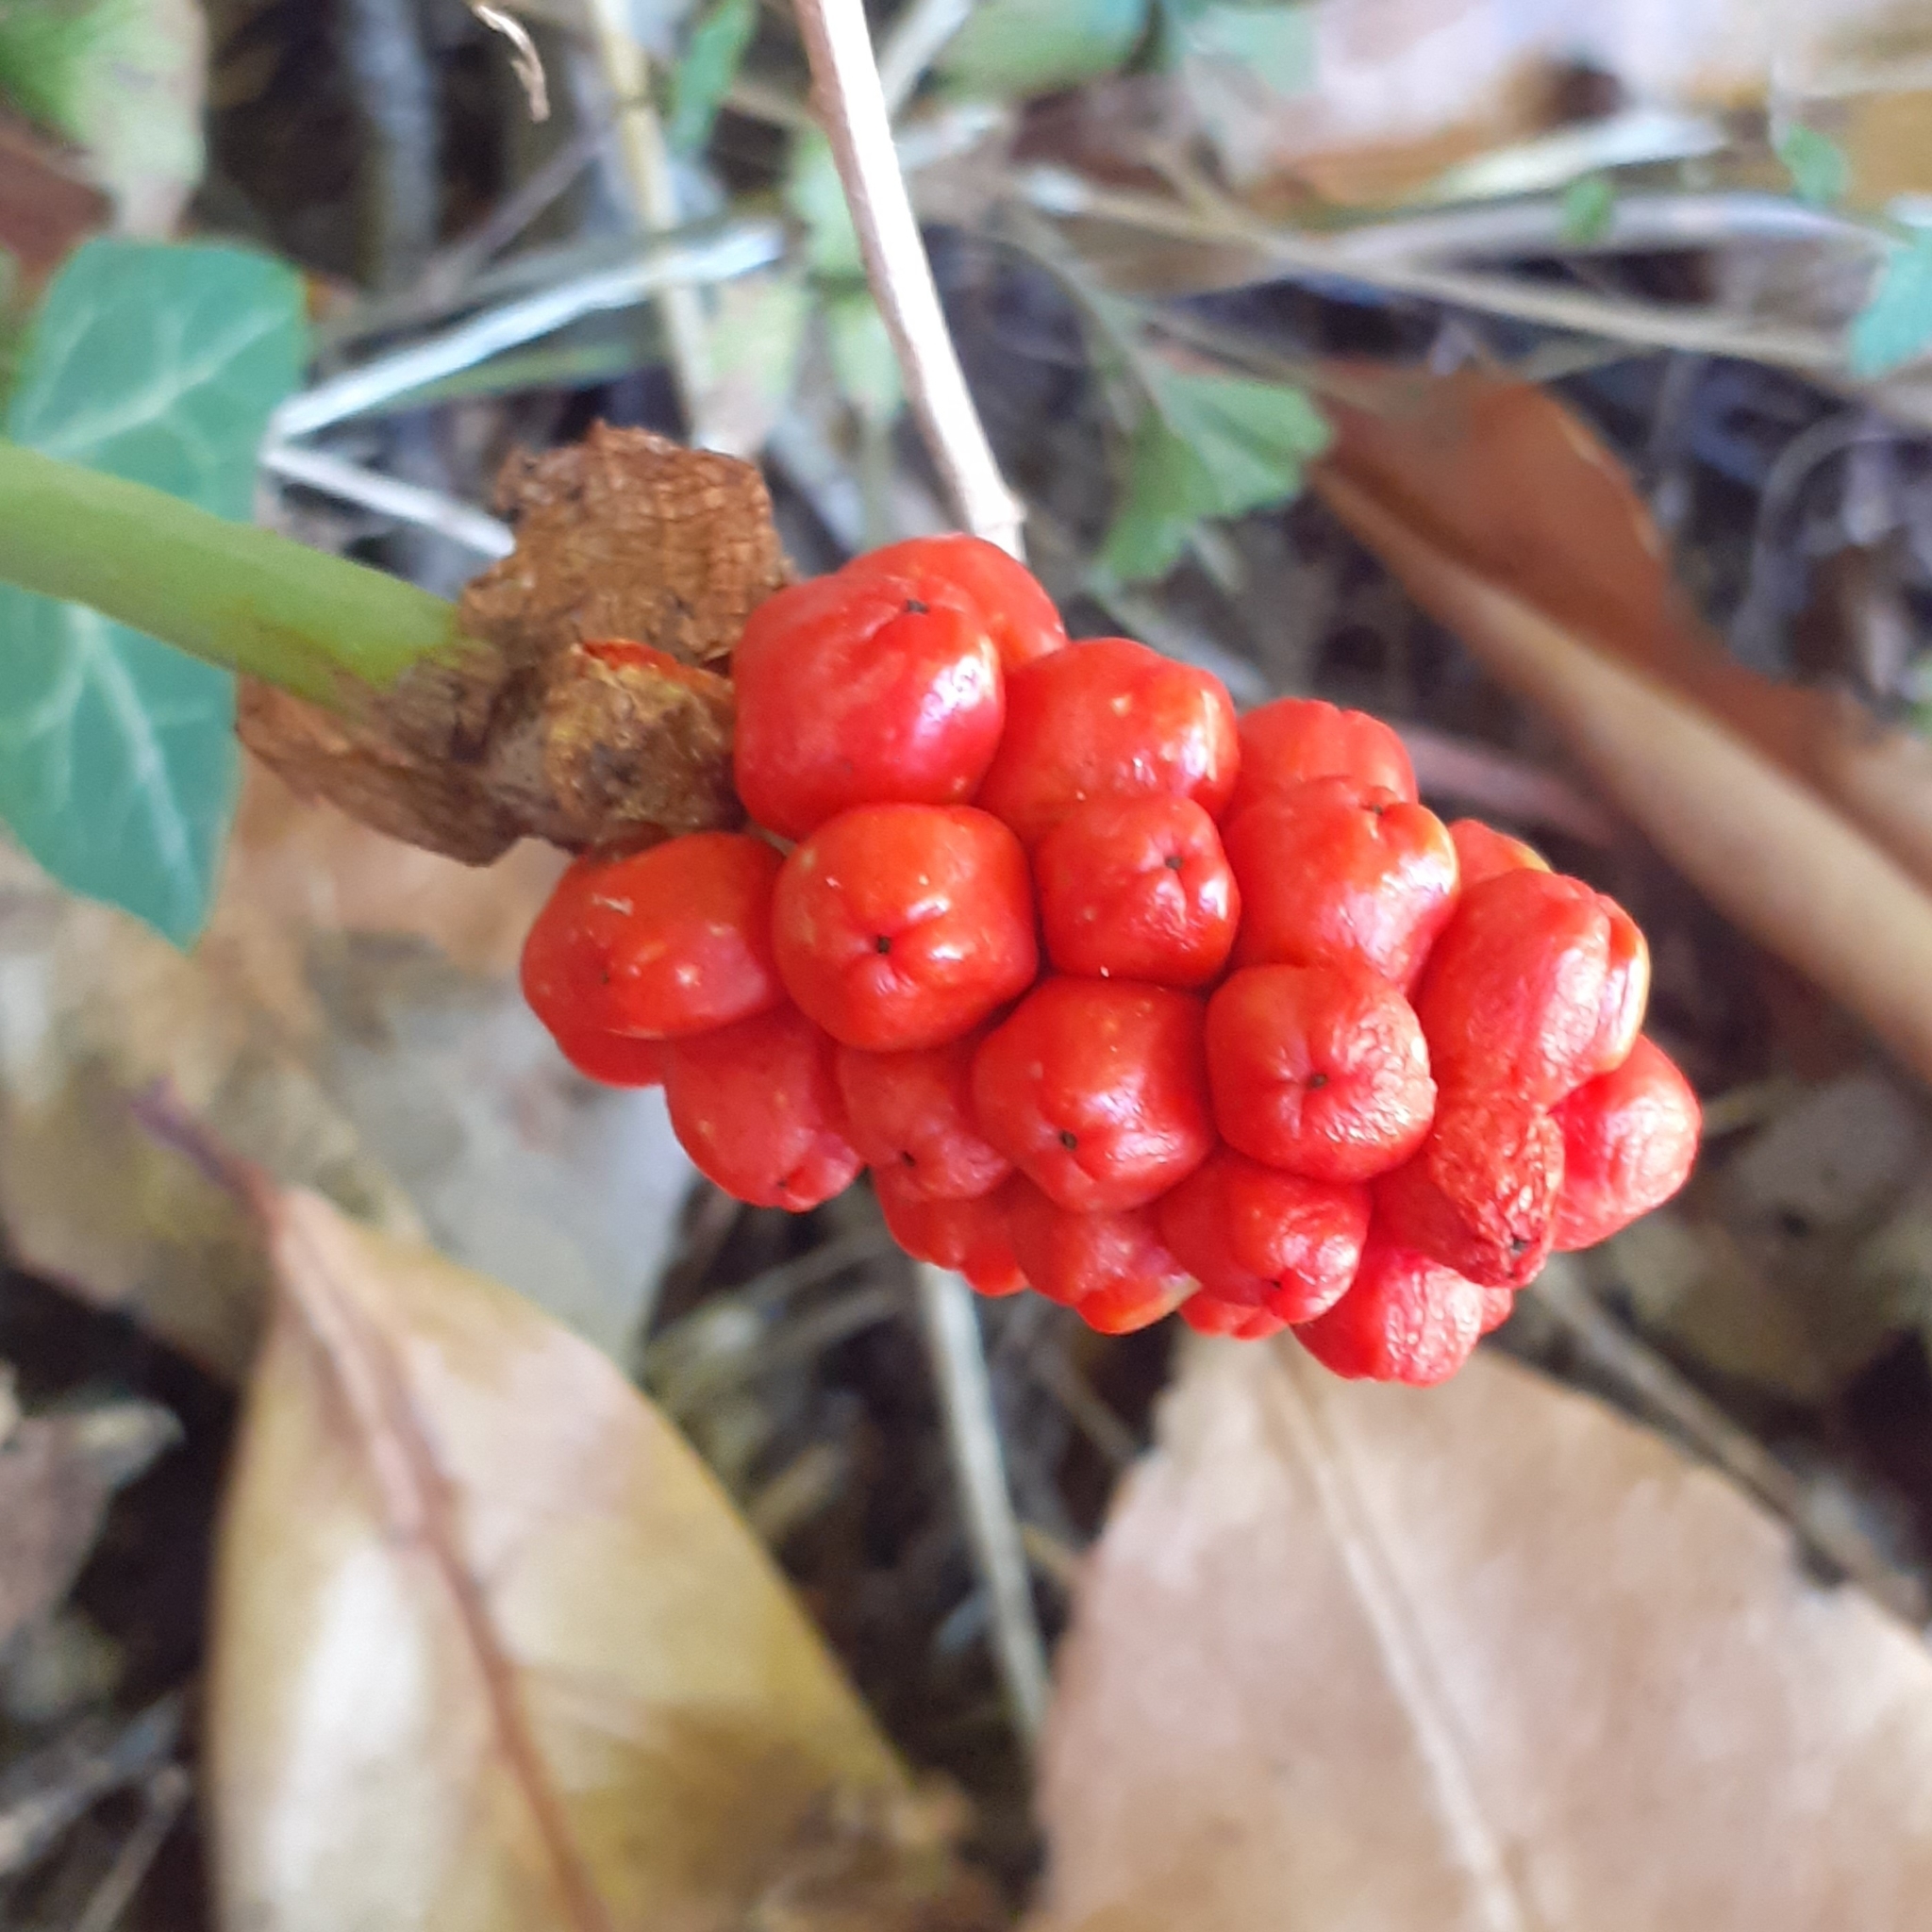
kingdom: Plantae
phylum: Tracheophyta
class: Liliopsida
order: Alismatales
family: Araceae
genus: Arum
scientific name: Arum maculatum
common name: Lords-and-ladies
